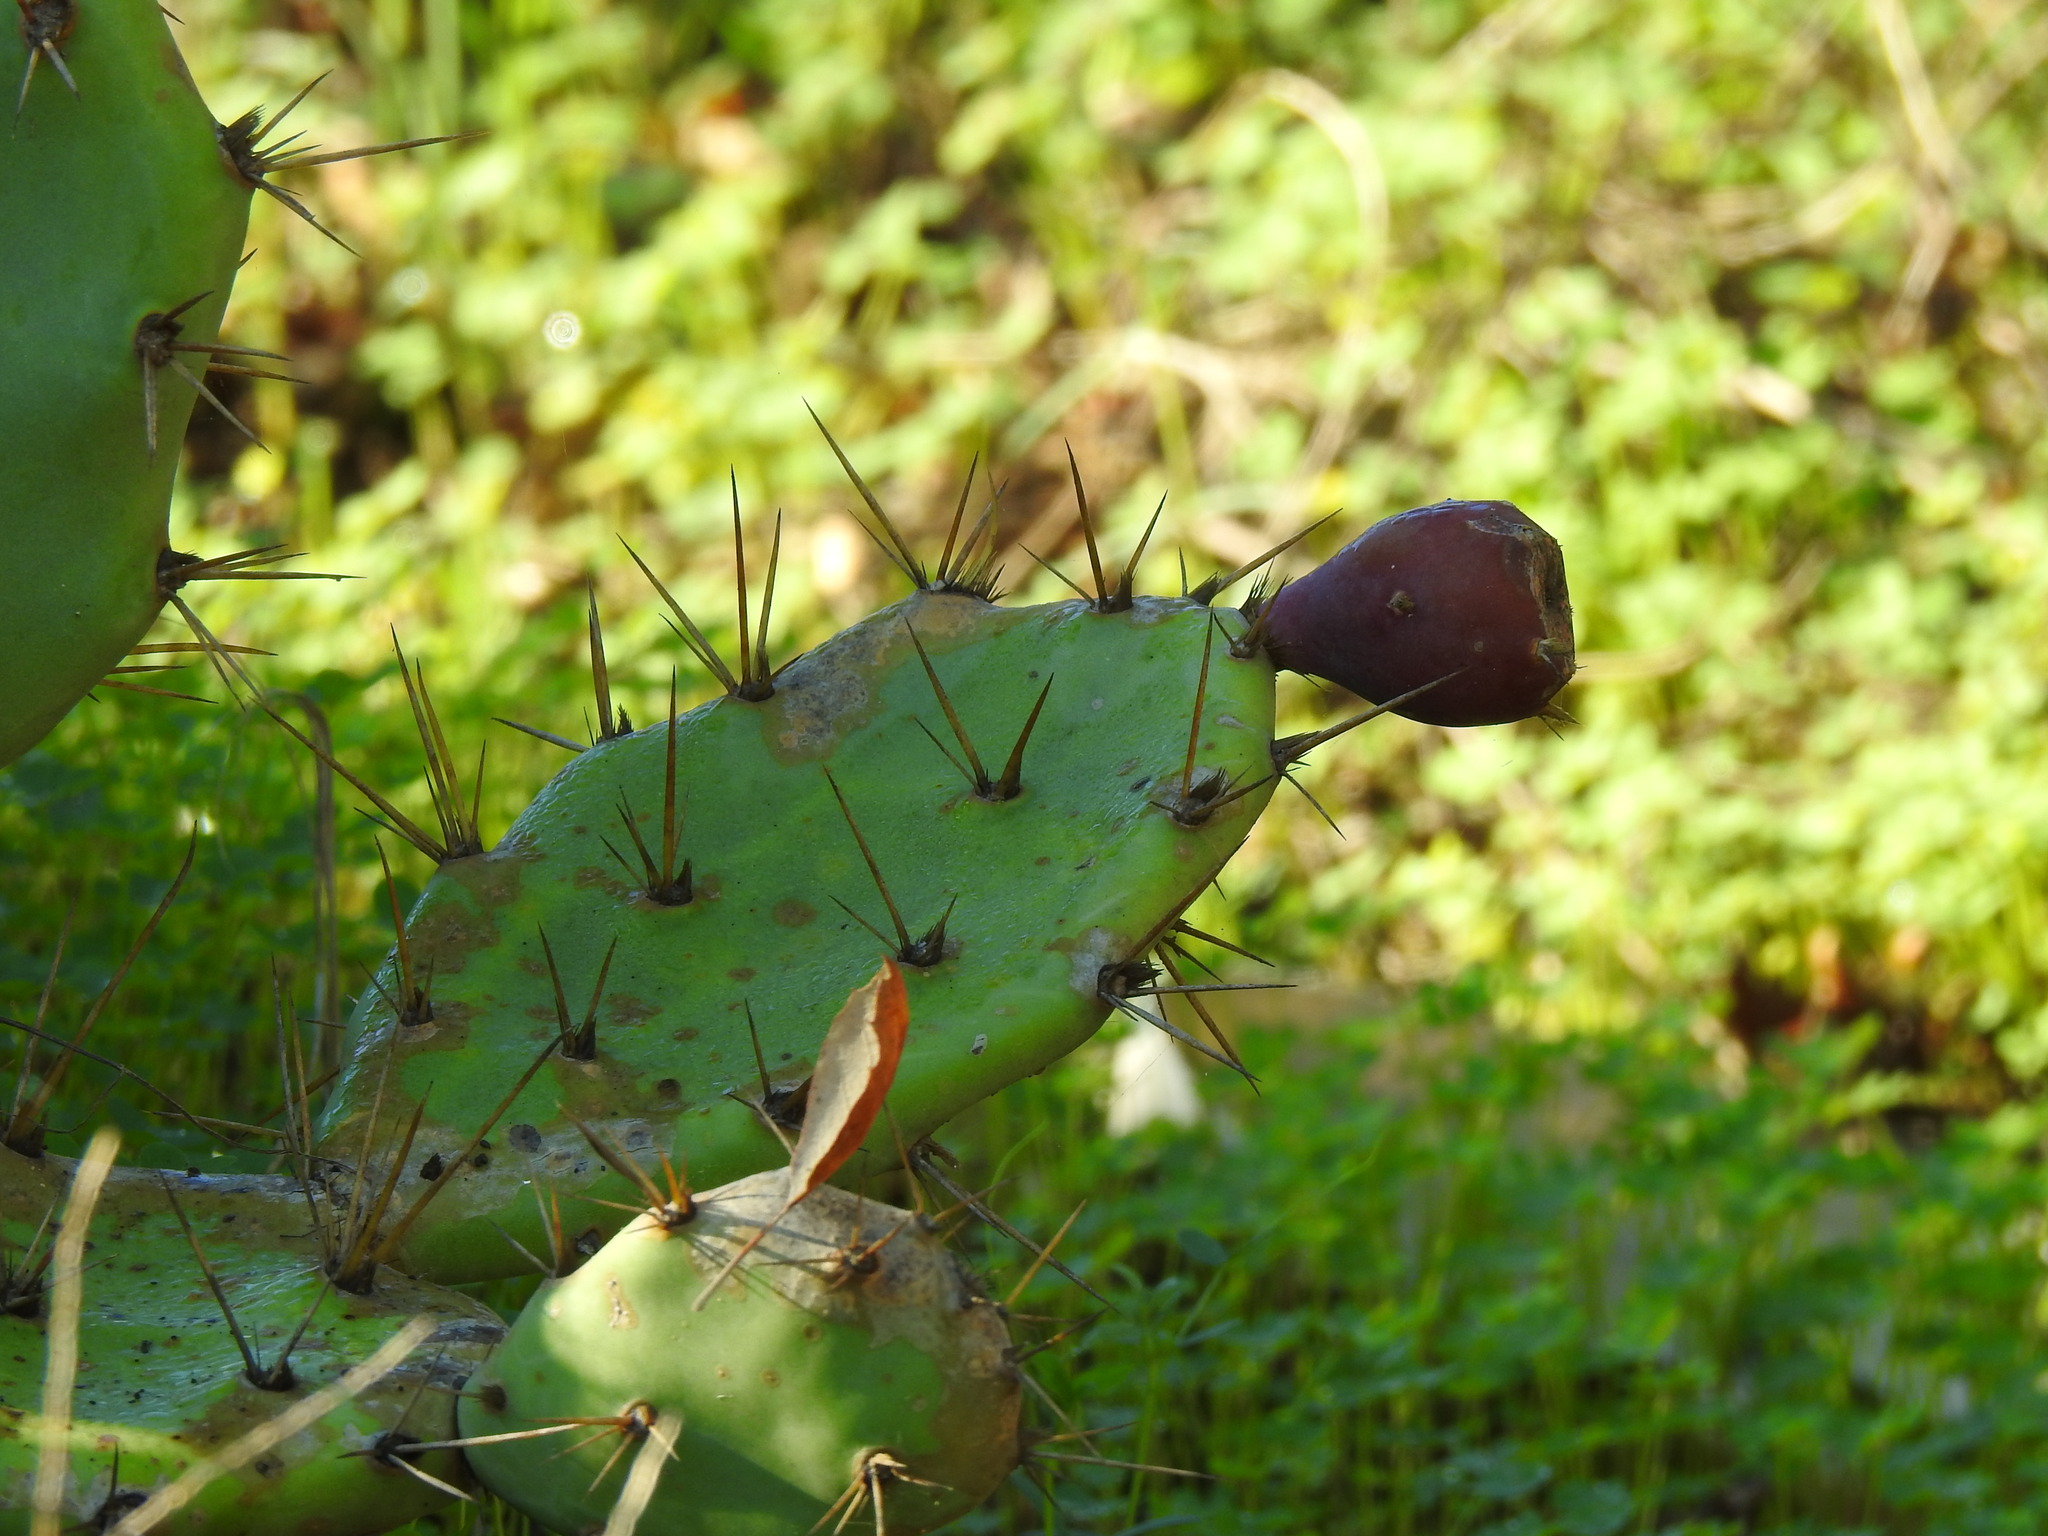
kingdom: Plantae
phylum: Tracheophyta
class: Magnoliopsida
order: Caryophyllales
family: Cactaceae
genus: Opuntia
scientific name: Opuntia stricta
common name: Erect pricklypear
